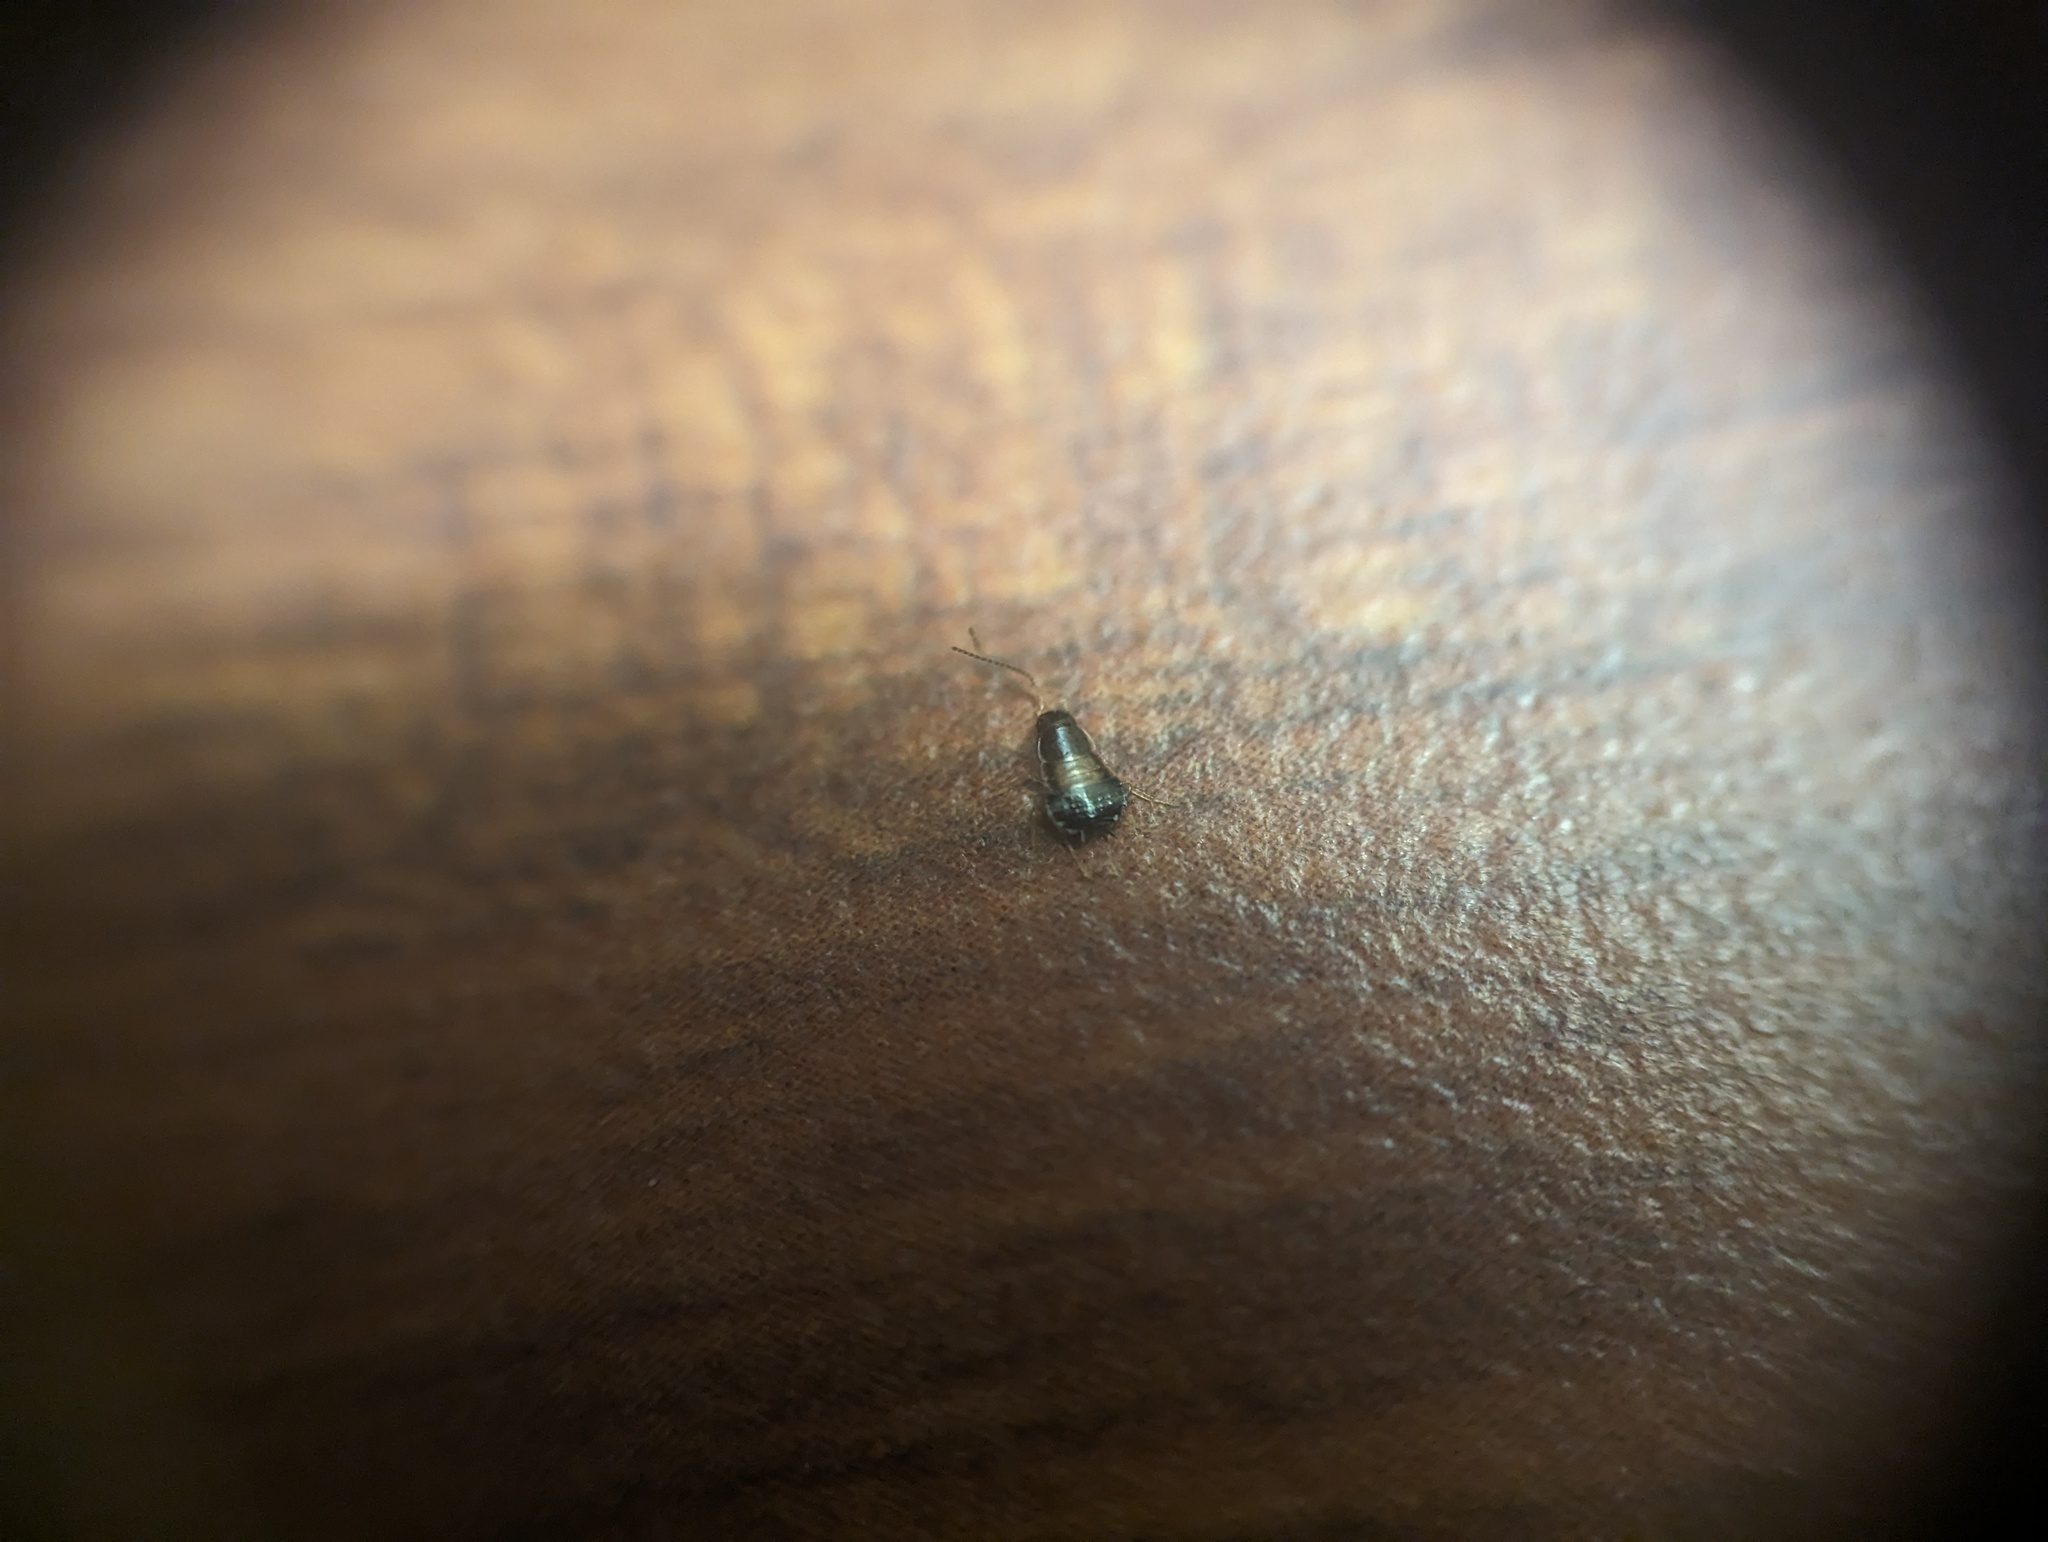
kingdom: Animalia
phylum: Arthropoda
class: Insecta
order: Blattodea
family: Ectobiidae
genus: Blattella
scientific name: Blattella germanica
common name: German cockroach
